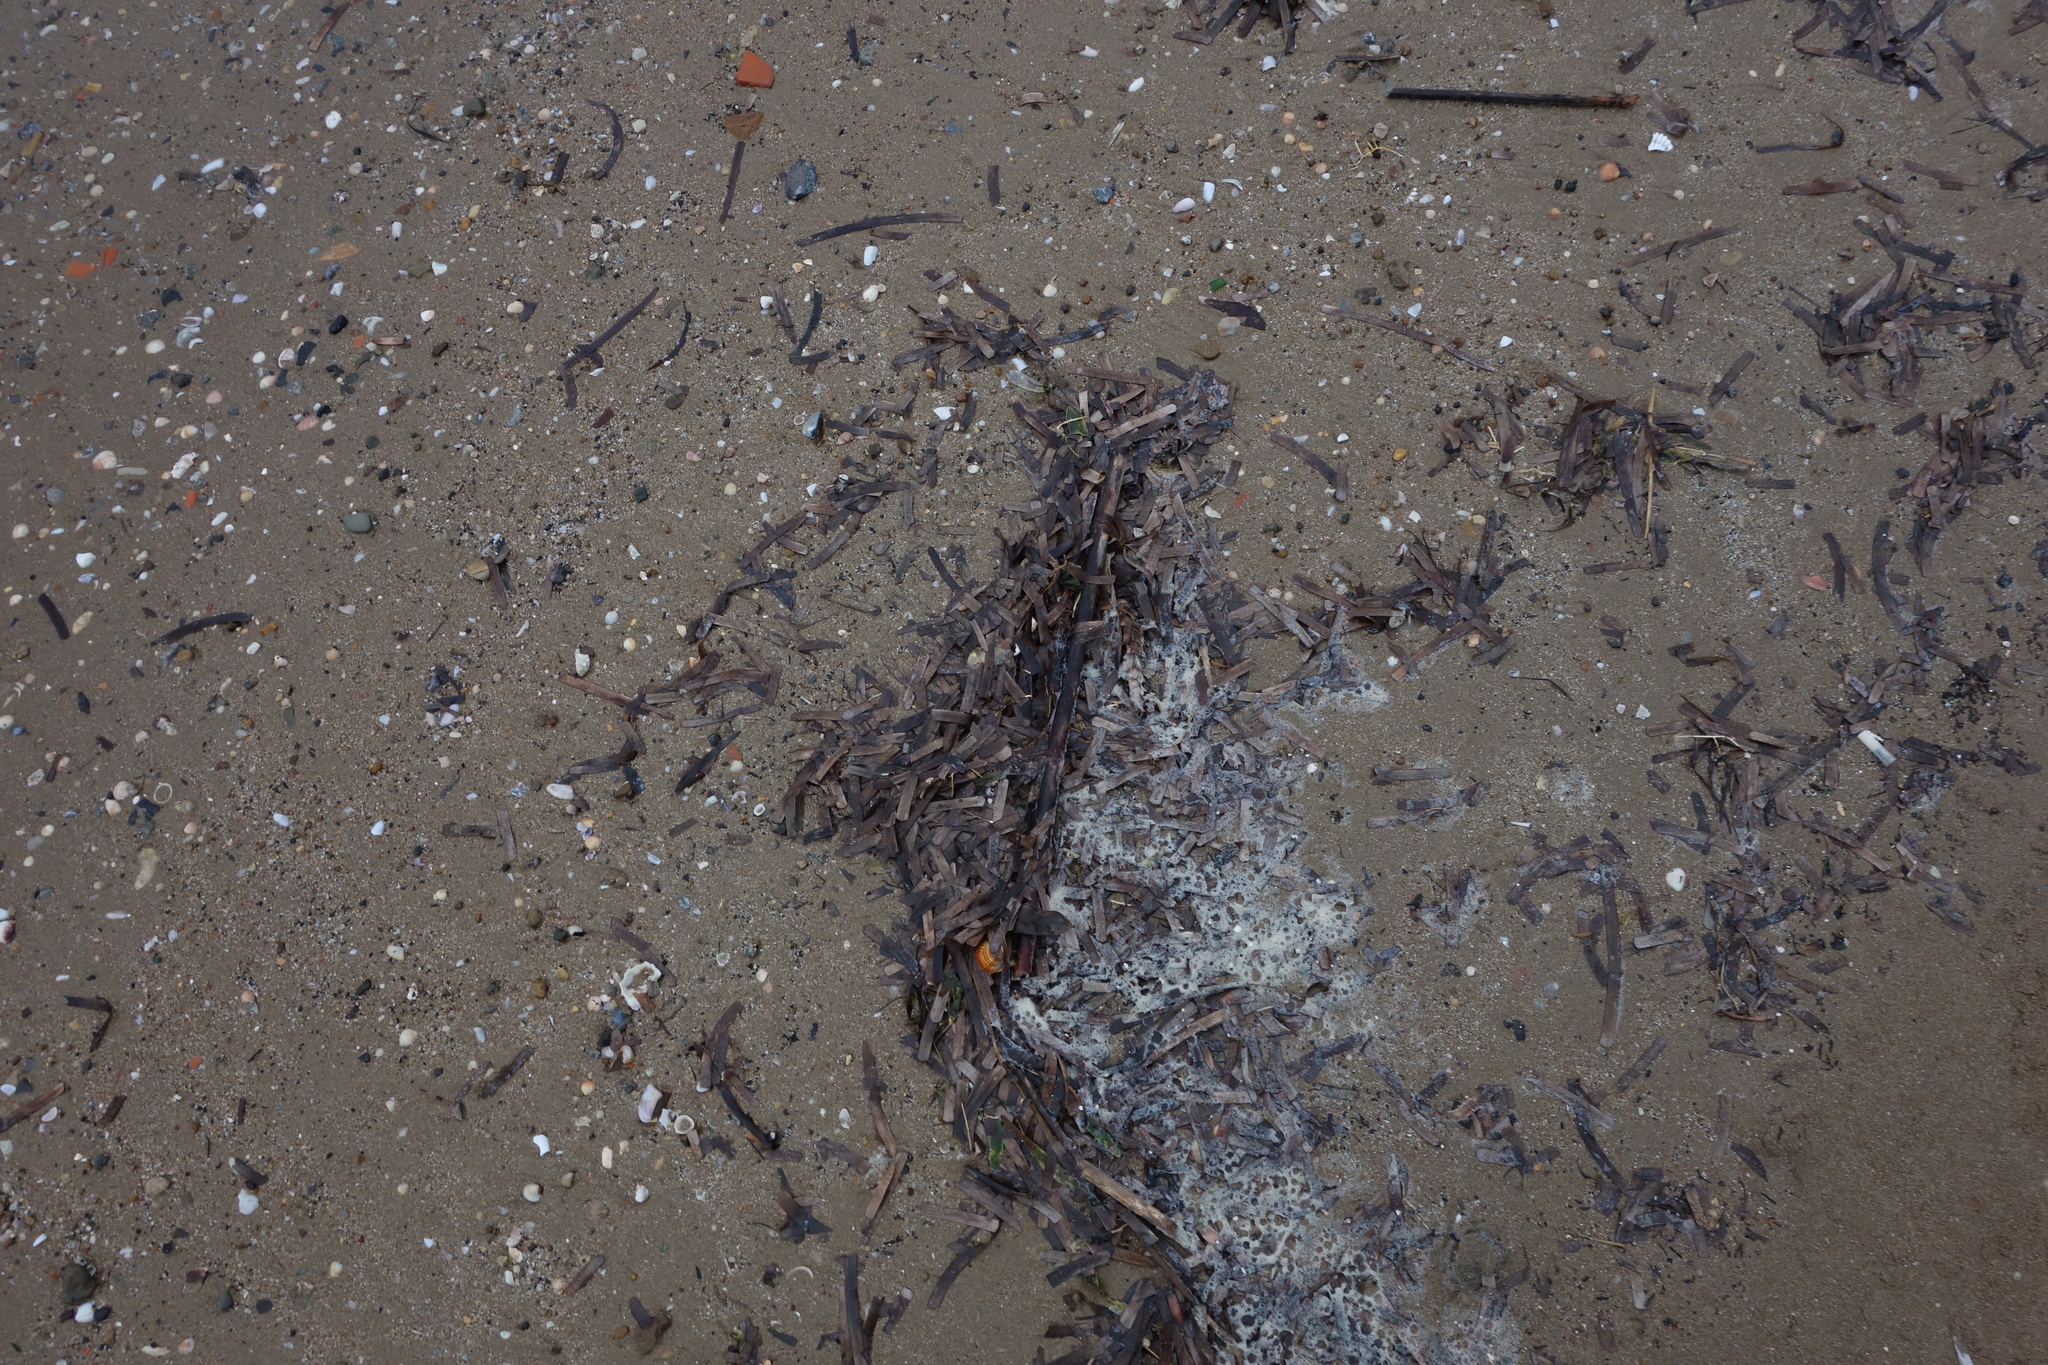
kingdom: Plantae
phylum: Tracheophyta
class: Liliopsida
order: Alismatales
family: Posidoniaceae
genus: Posidonia
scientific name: Posidonia oceanica
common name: Mediterranean tapeweed
